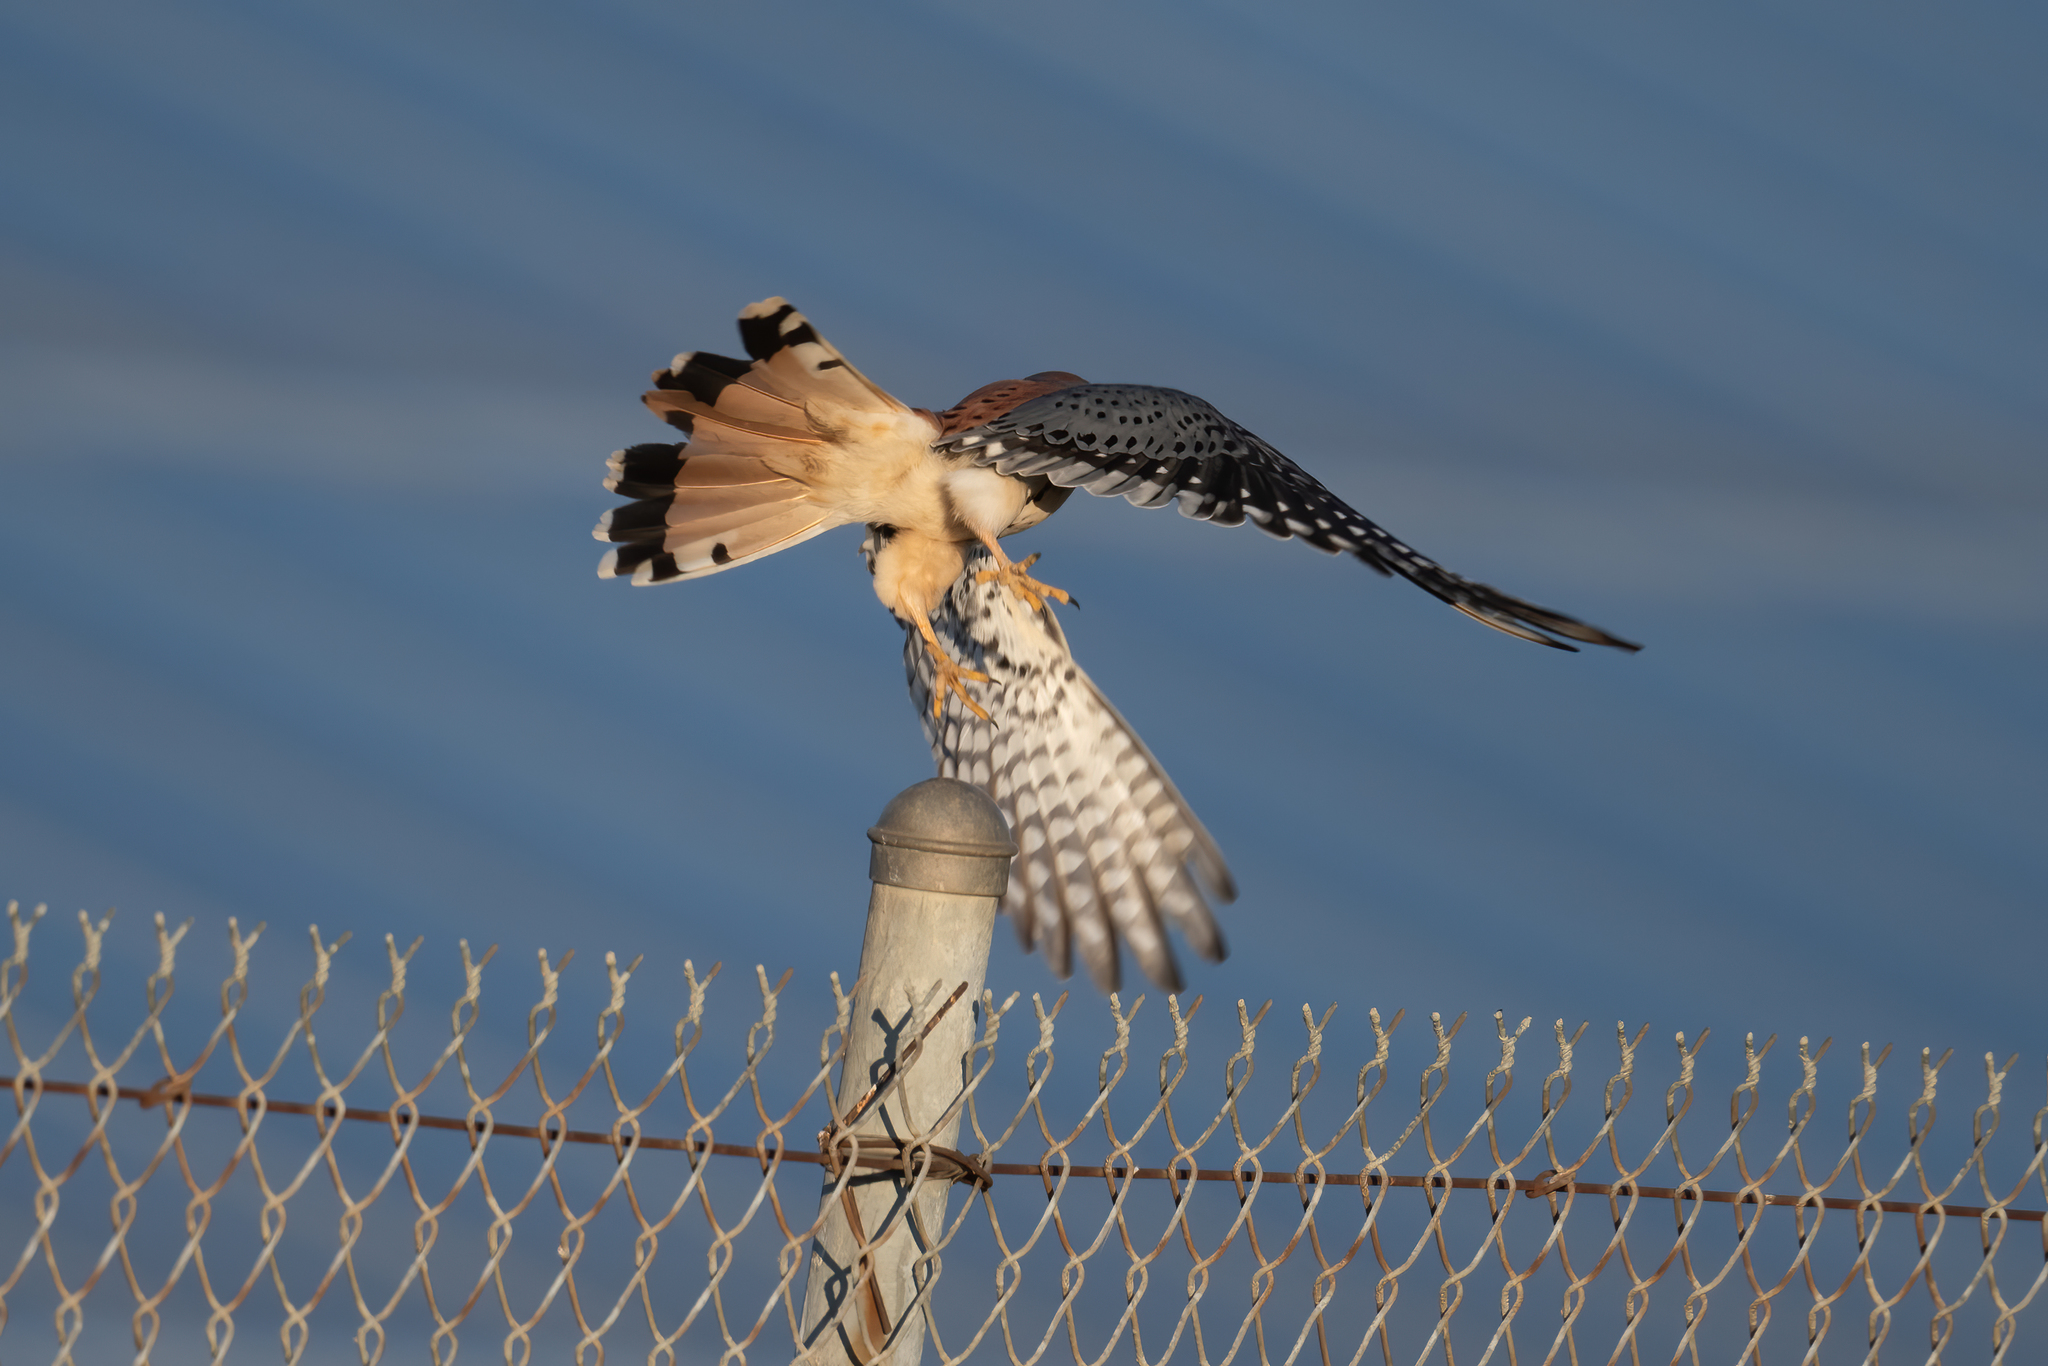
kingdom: Animalia
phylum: Chordata
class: Aves
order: Falconiformes
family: Falconidae
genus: Falco
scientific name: Falco sparverius
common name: American kestrel
